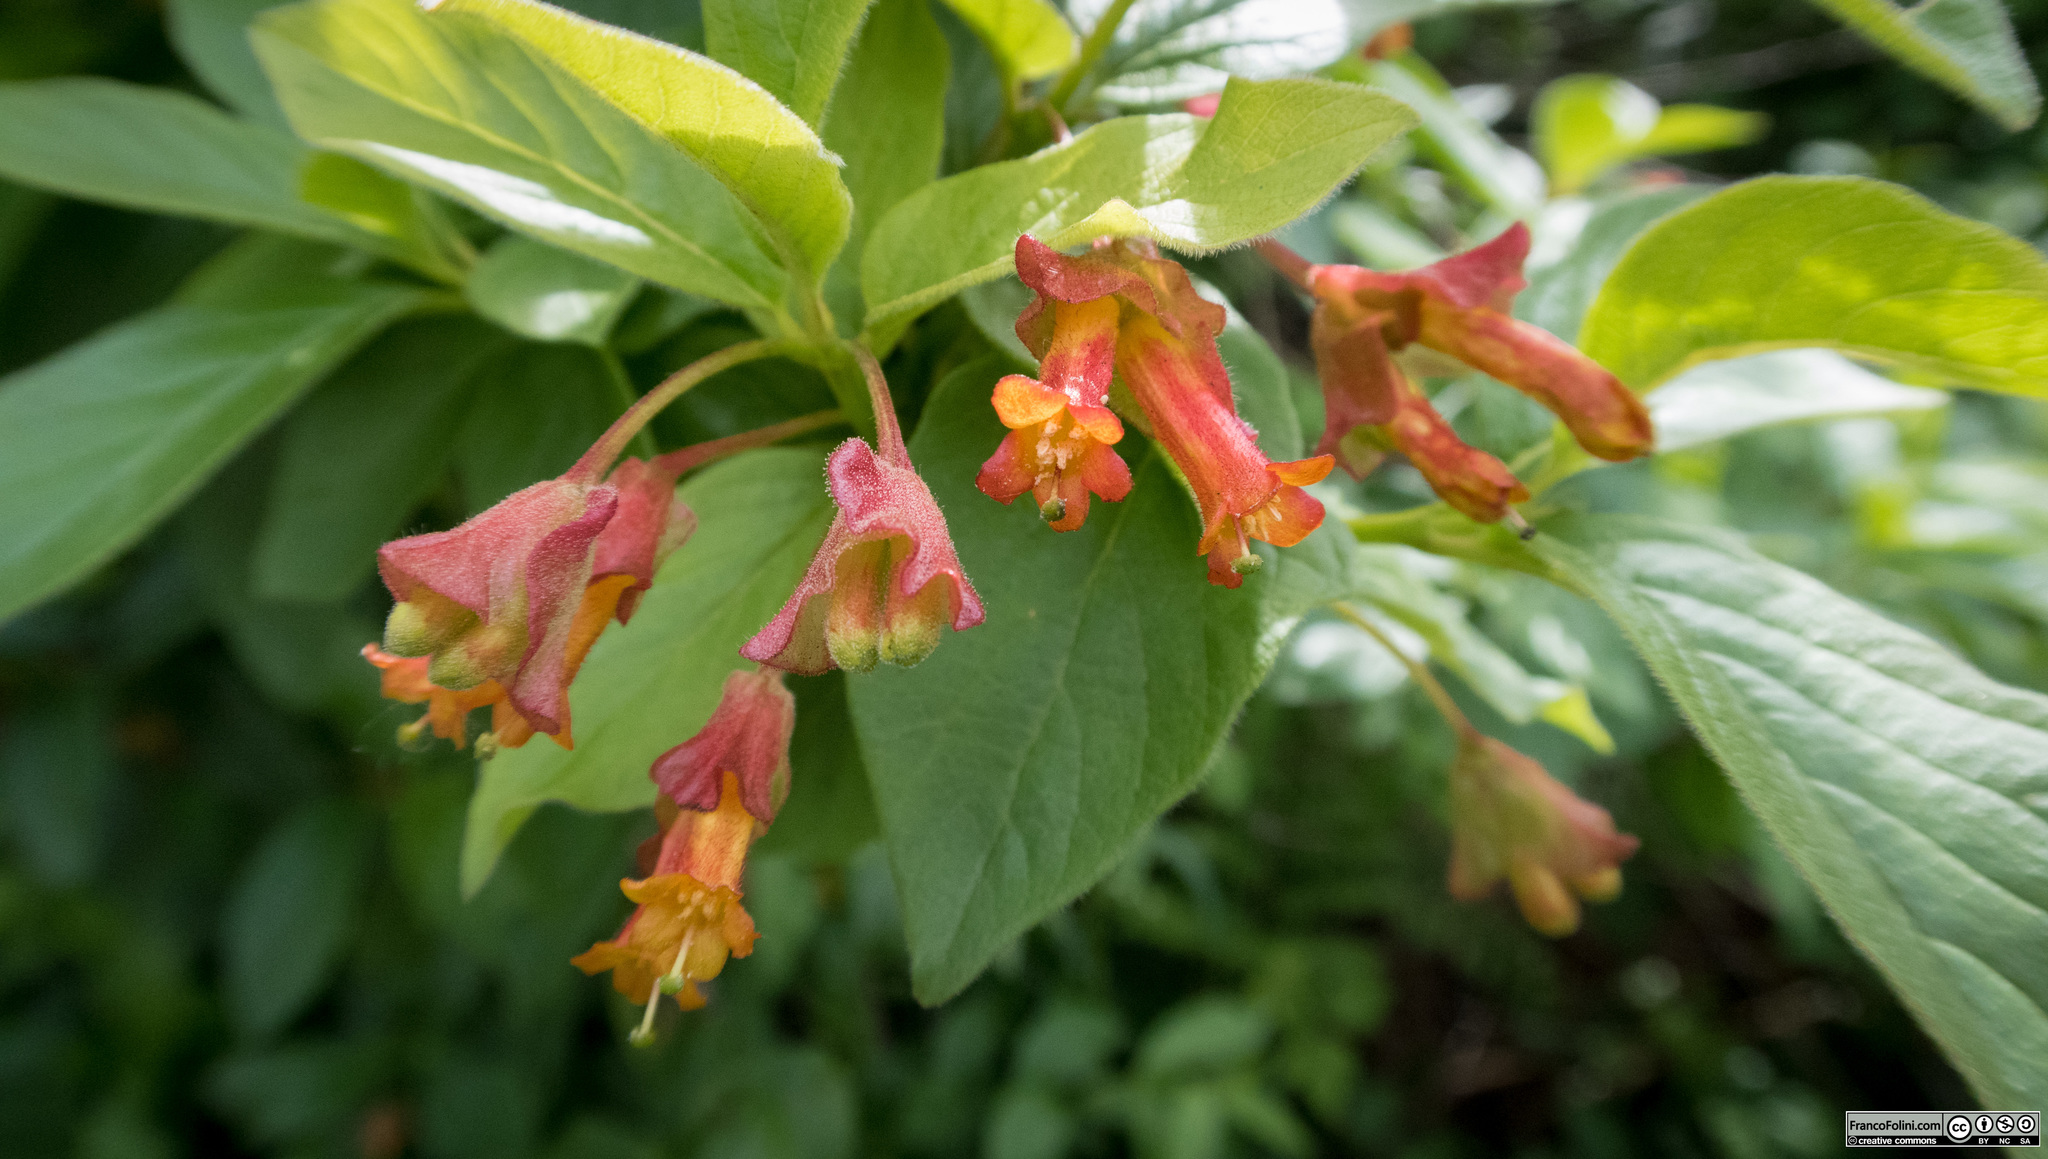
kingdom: Plantae
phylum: Tracheophyta
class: Magnoliopsida
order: Dipsacales
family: Caprifoliaceae
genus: Lonicera
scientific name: Lonicera involucrata
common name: Californian honeysuckle
